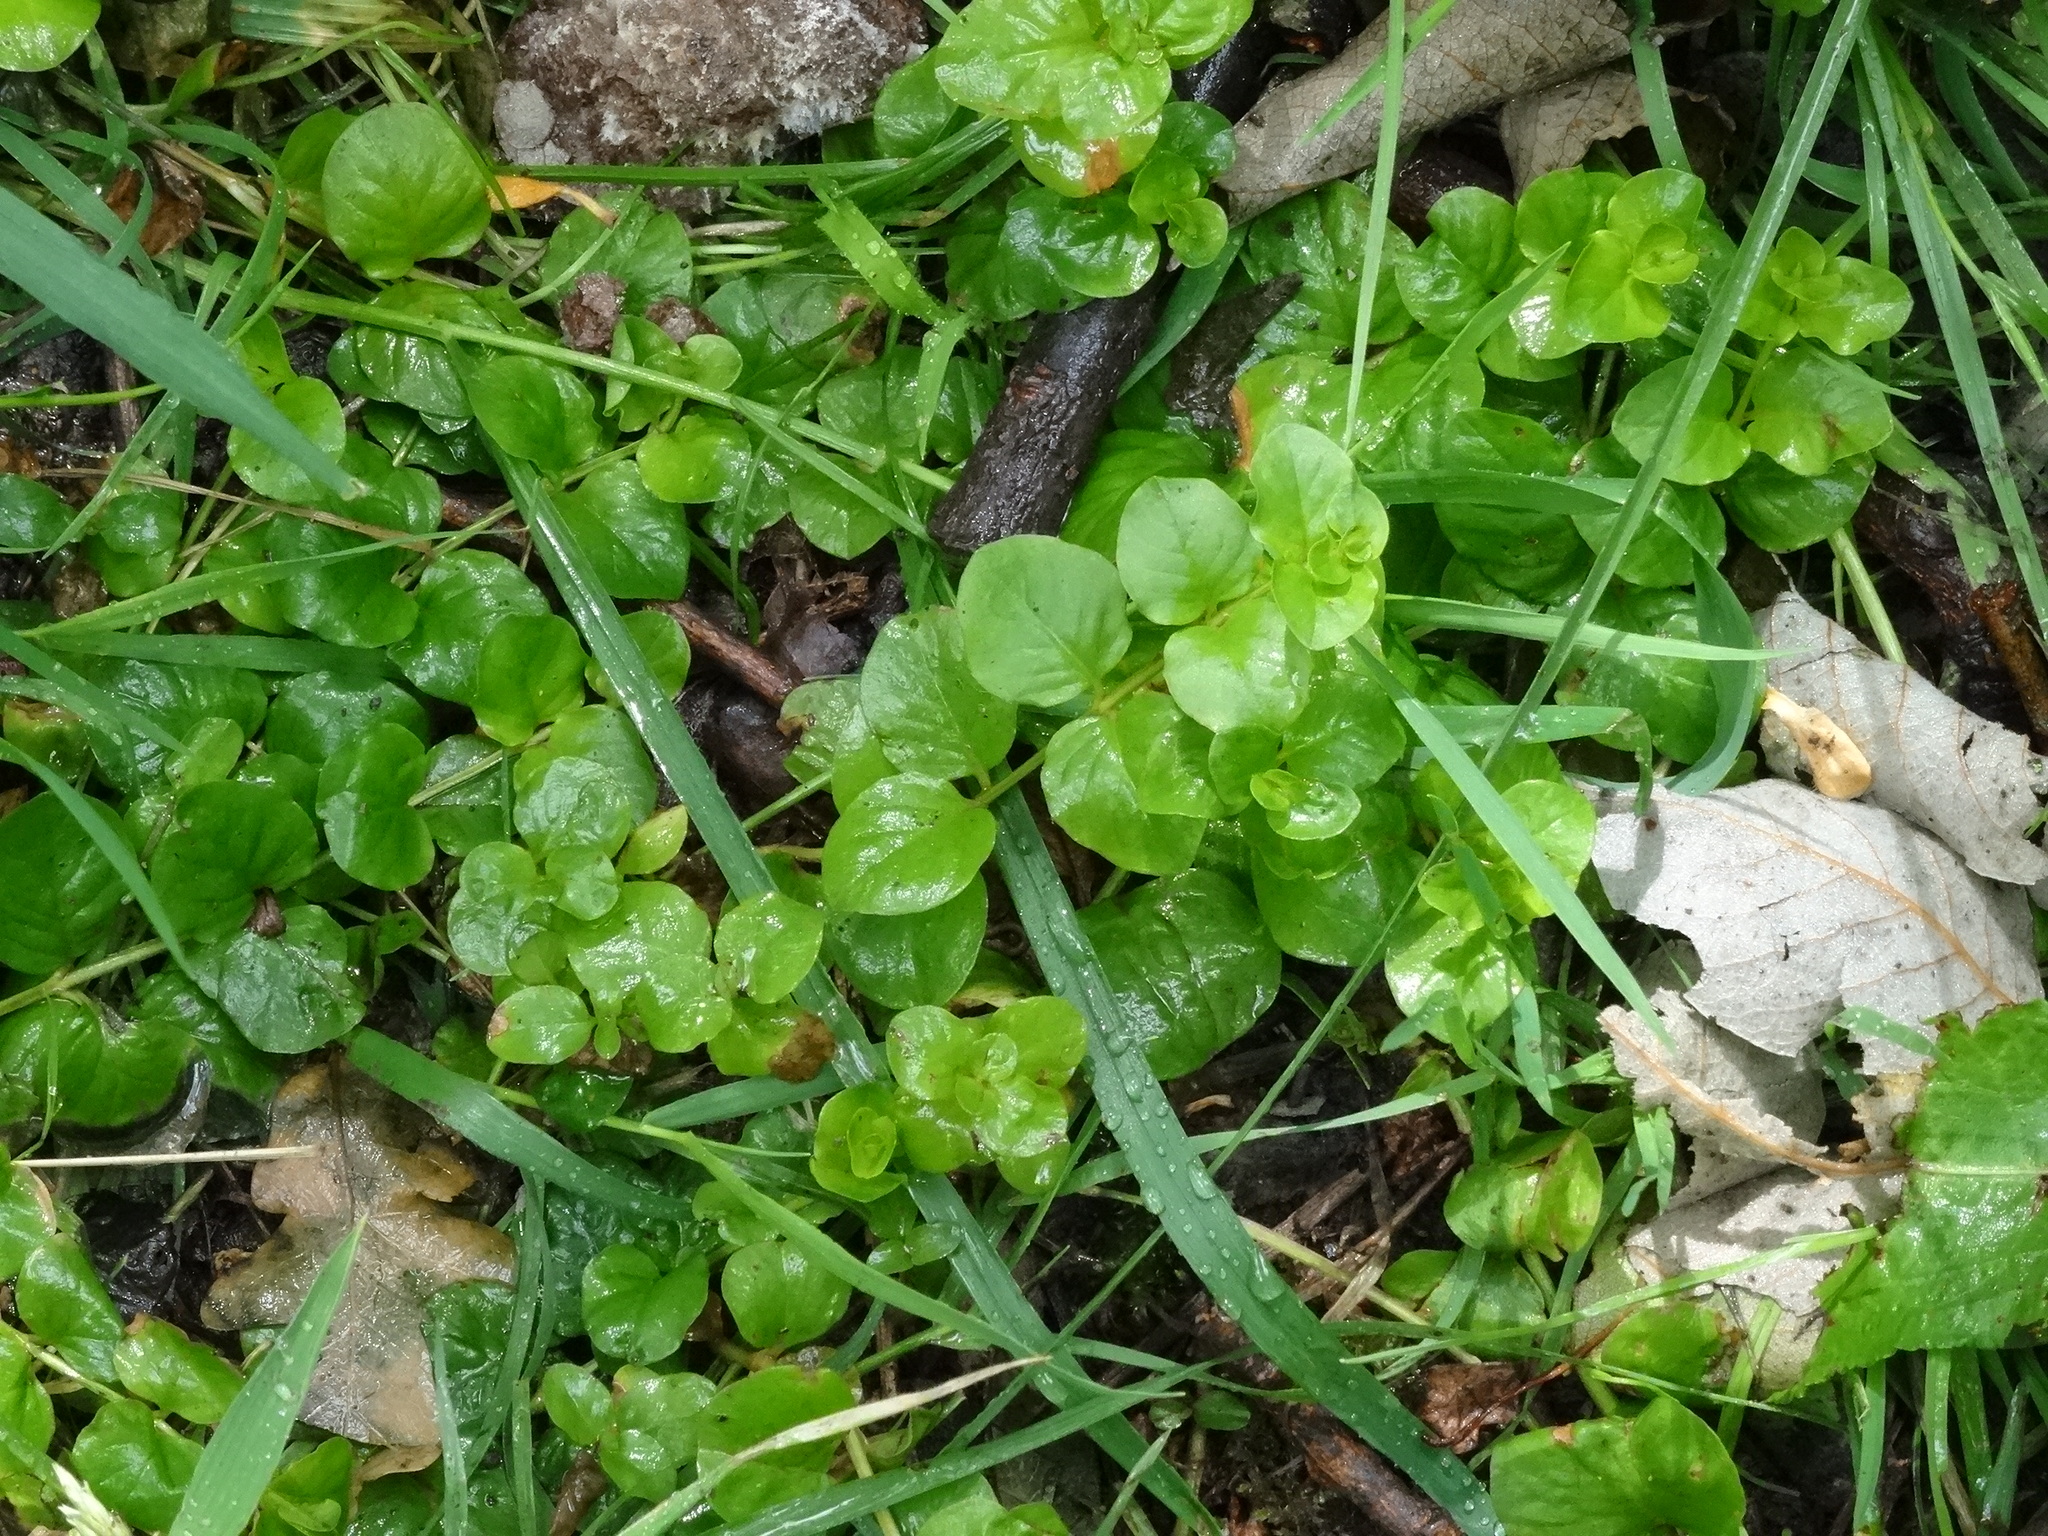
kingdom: Plantae
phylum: Tracheophyta
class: Magnoliopsida
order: Ericales
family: Primulaceae
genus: Lysimachia
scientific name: Lysimachia nummularia
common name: Moneywort
